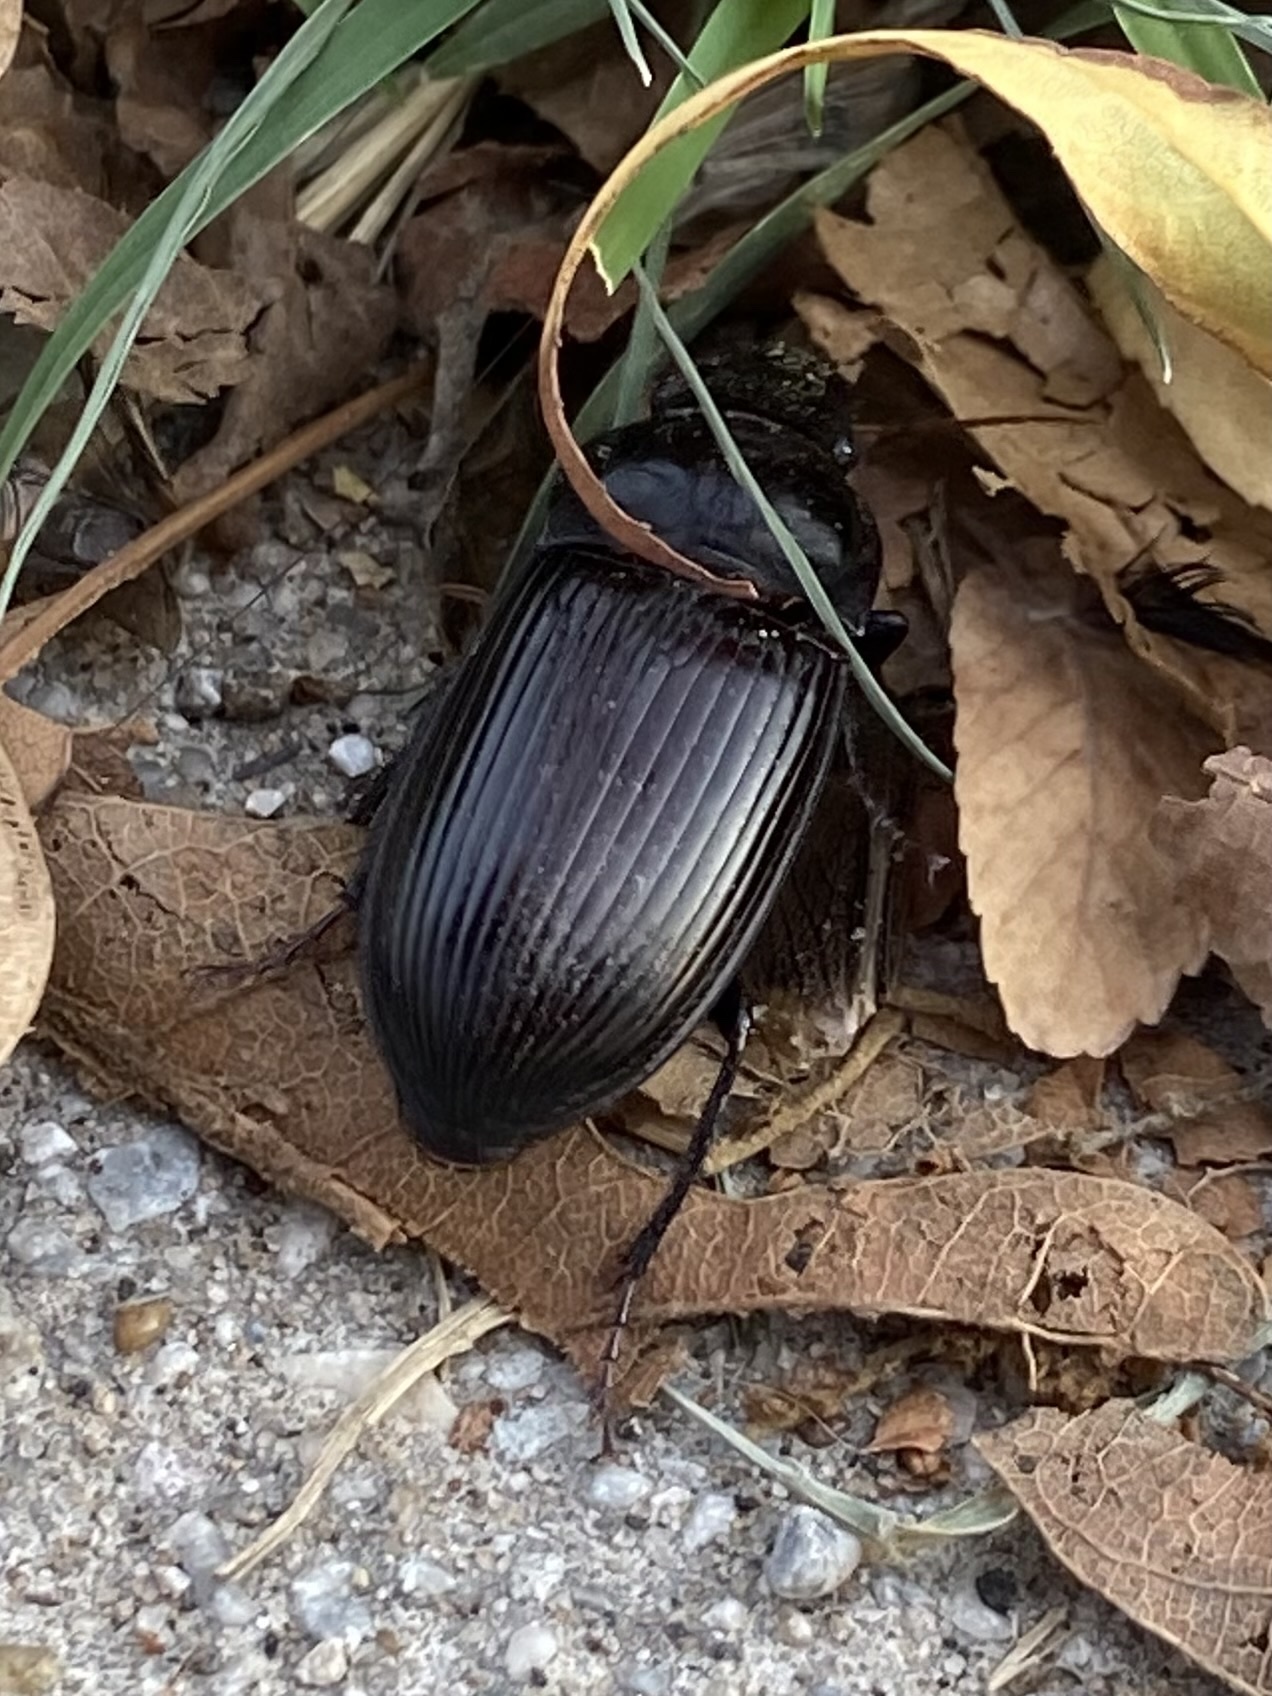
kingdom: Animalia
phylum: Arthropoda
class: Insecta
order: Coleoptera
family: Carabidae
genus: Harpalus
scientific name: Harpalus
